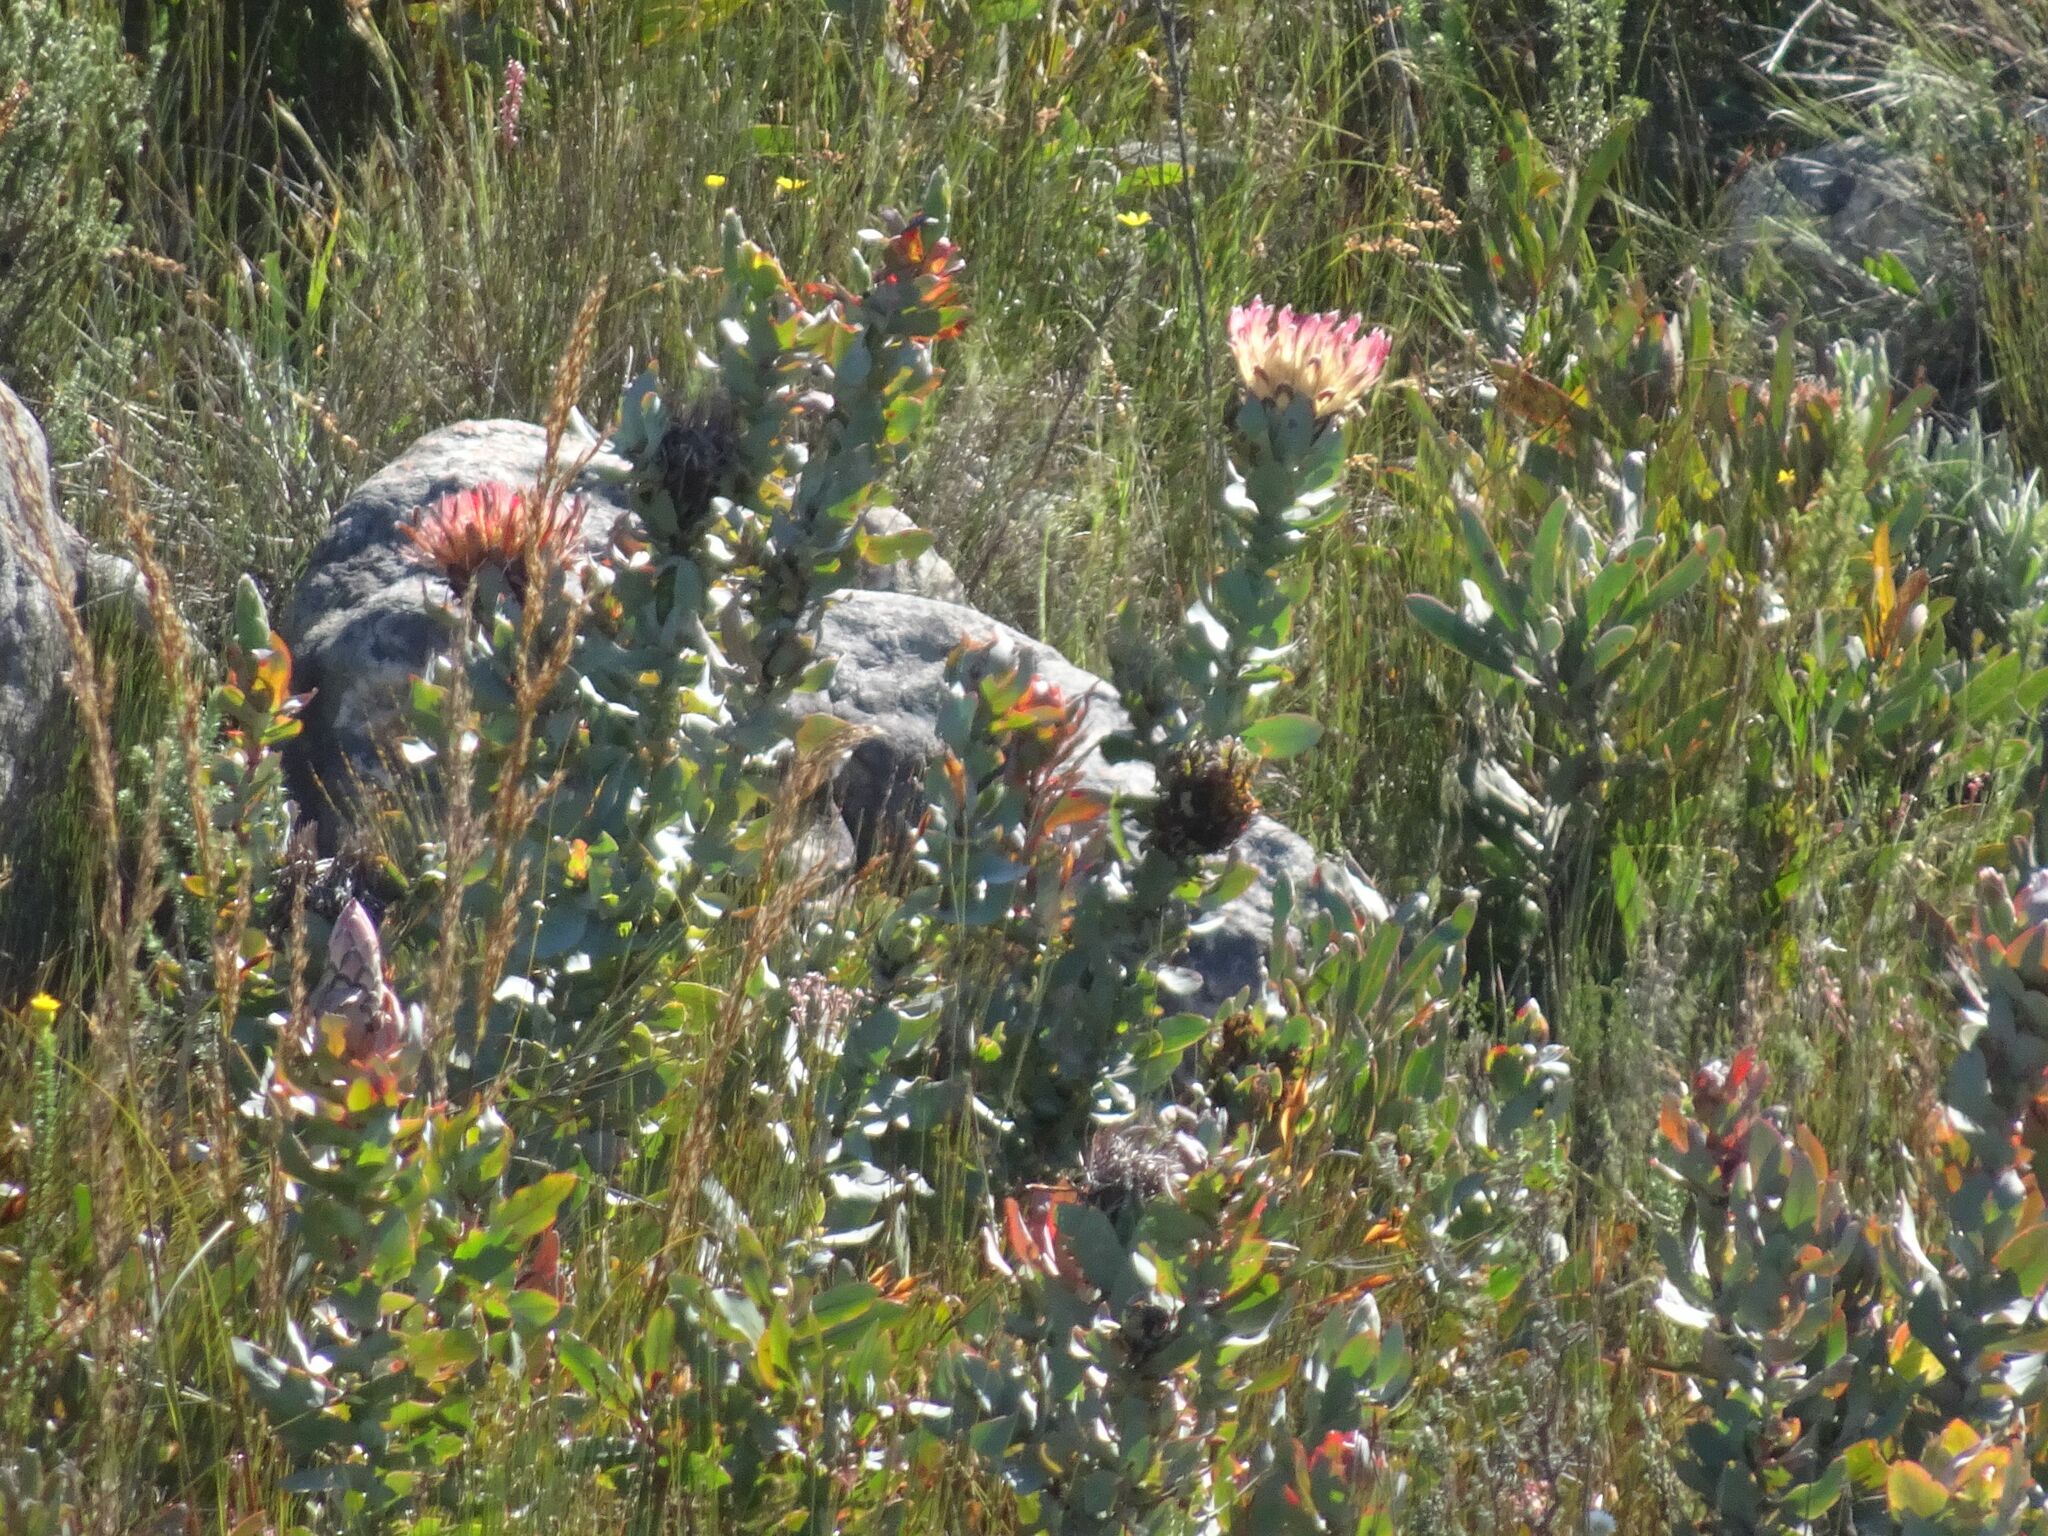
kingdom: Plantae
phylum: Tracheophyta
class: Magnoliopsida
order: Proteales
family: Proteaceae
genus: Protea
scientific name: Protea eximia
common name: Broad-leaved sugarbush
